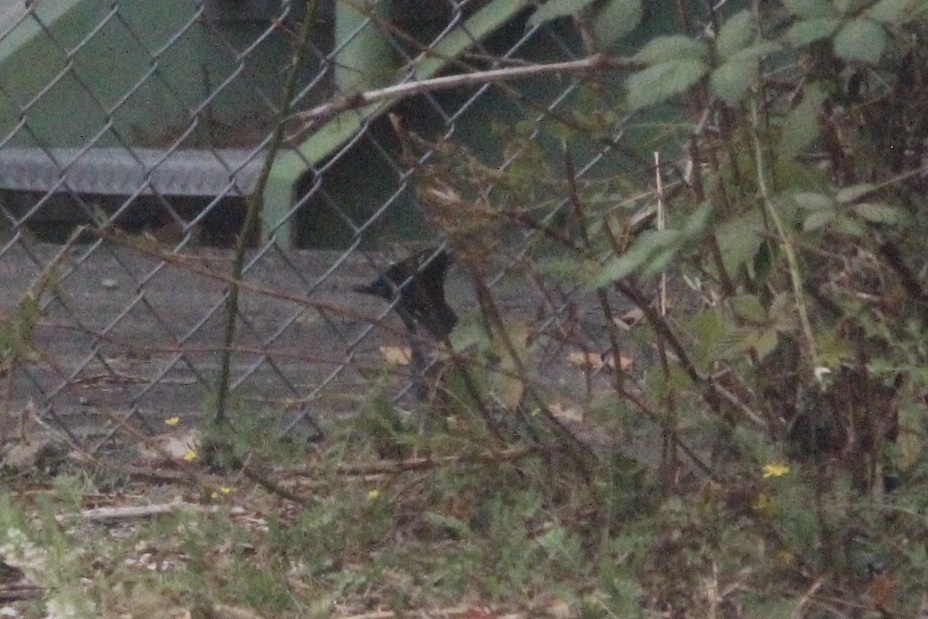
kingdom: Animalia
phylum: Chordata
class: Aves
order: Passeriformes
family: Corvidae
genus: Cyanocitta
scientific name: Cyanocitta stelleri
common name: Steller's jay
